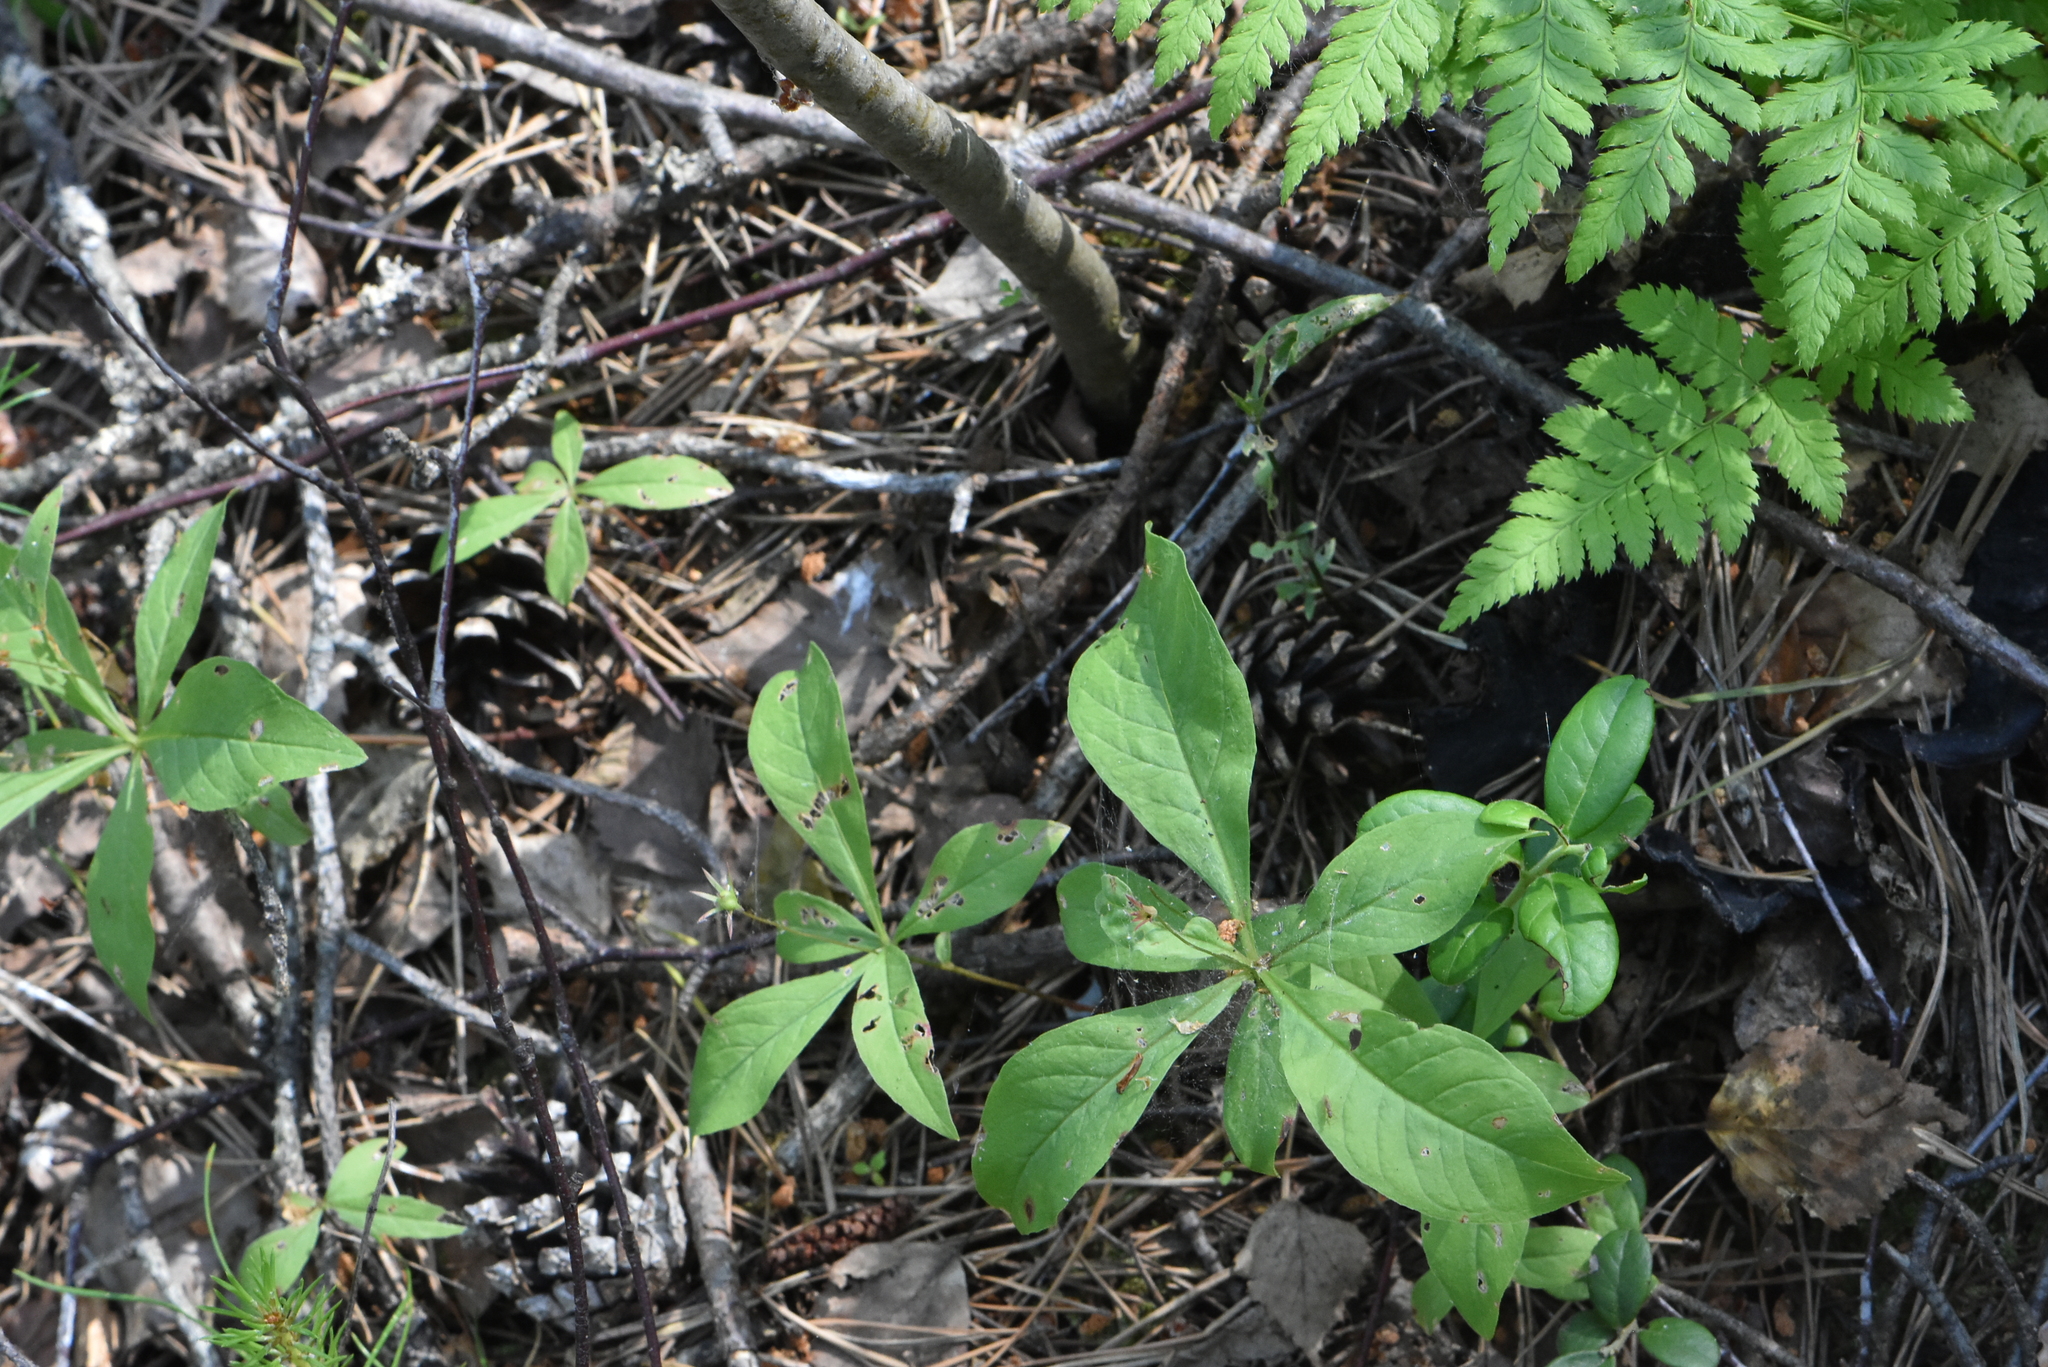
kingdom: Plantae
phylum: Tracheophyta
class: Magnoliopsida
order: Ericales
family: Primulaceae
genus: Lysimachia
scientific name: Lysimachia europaea
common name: Arctic starflower
